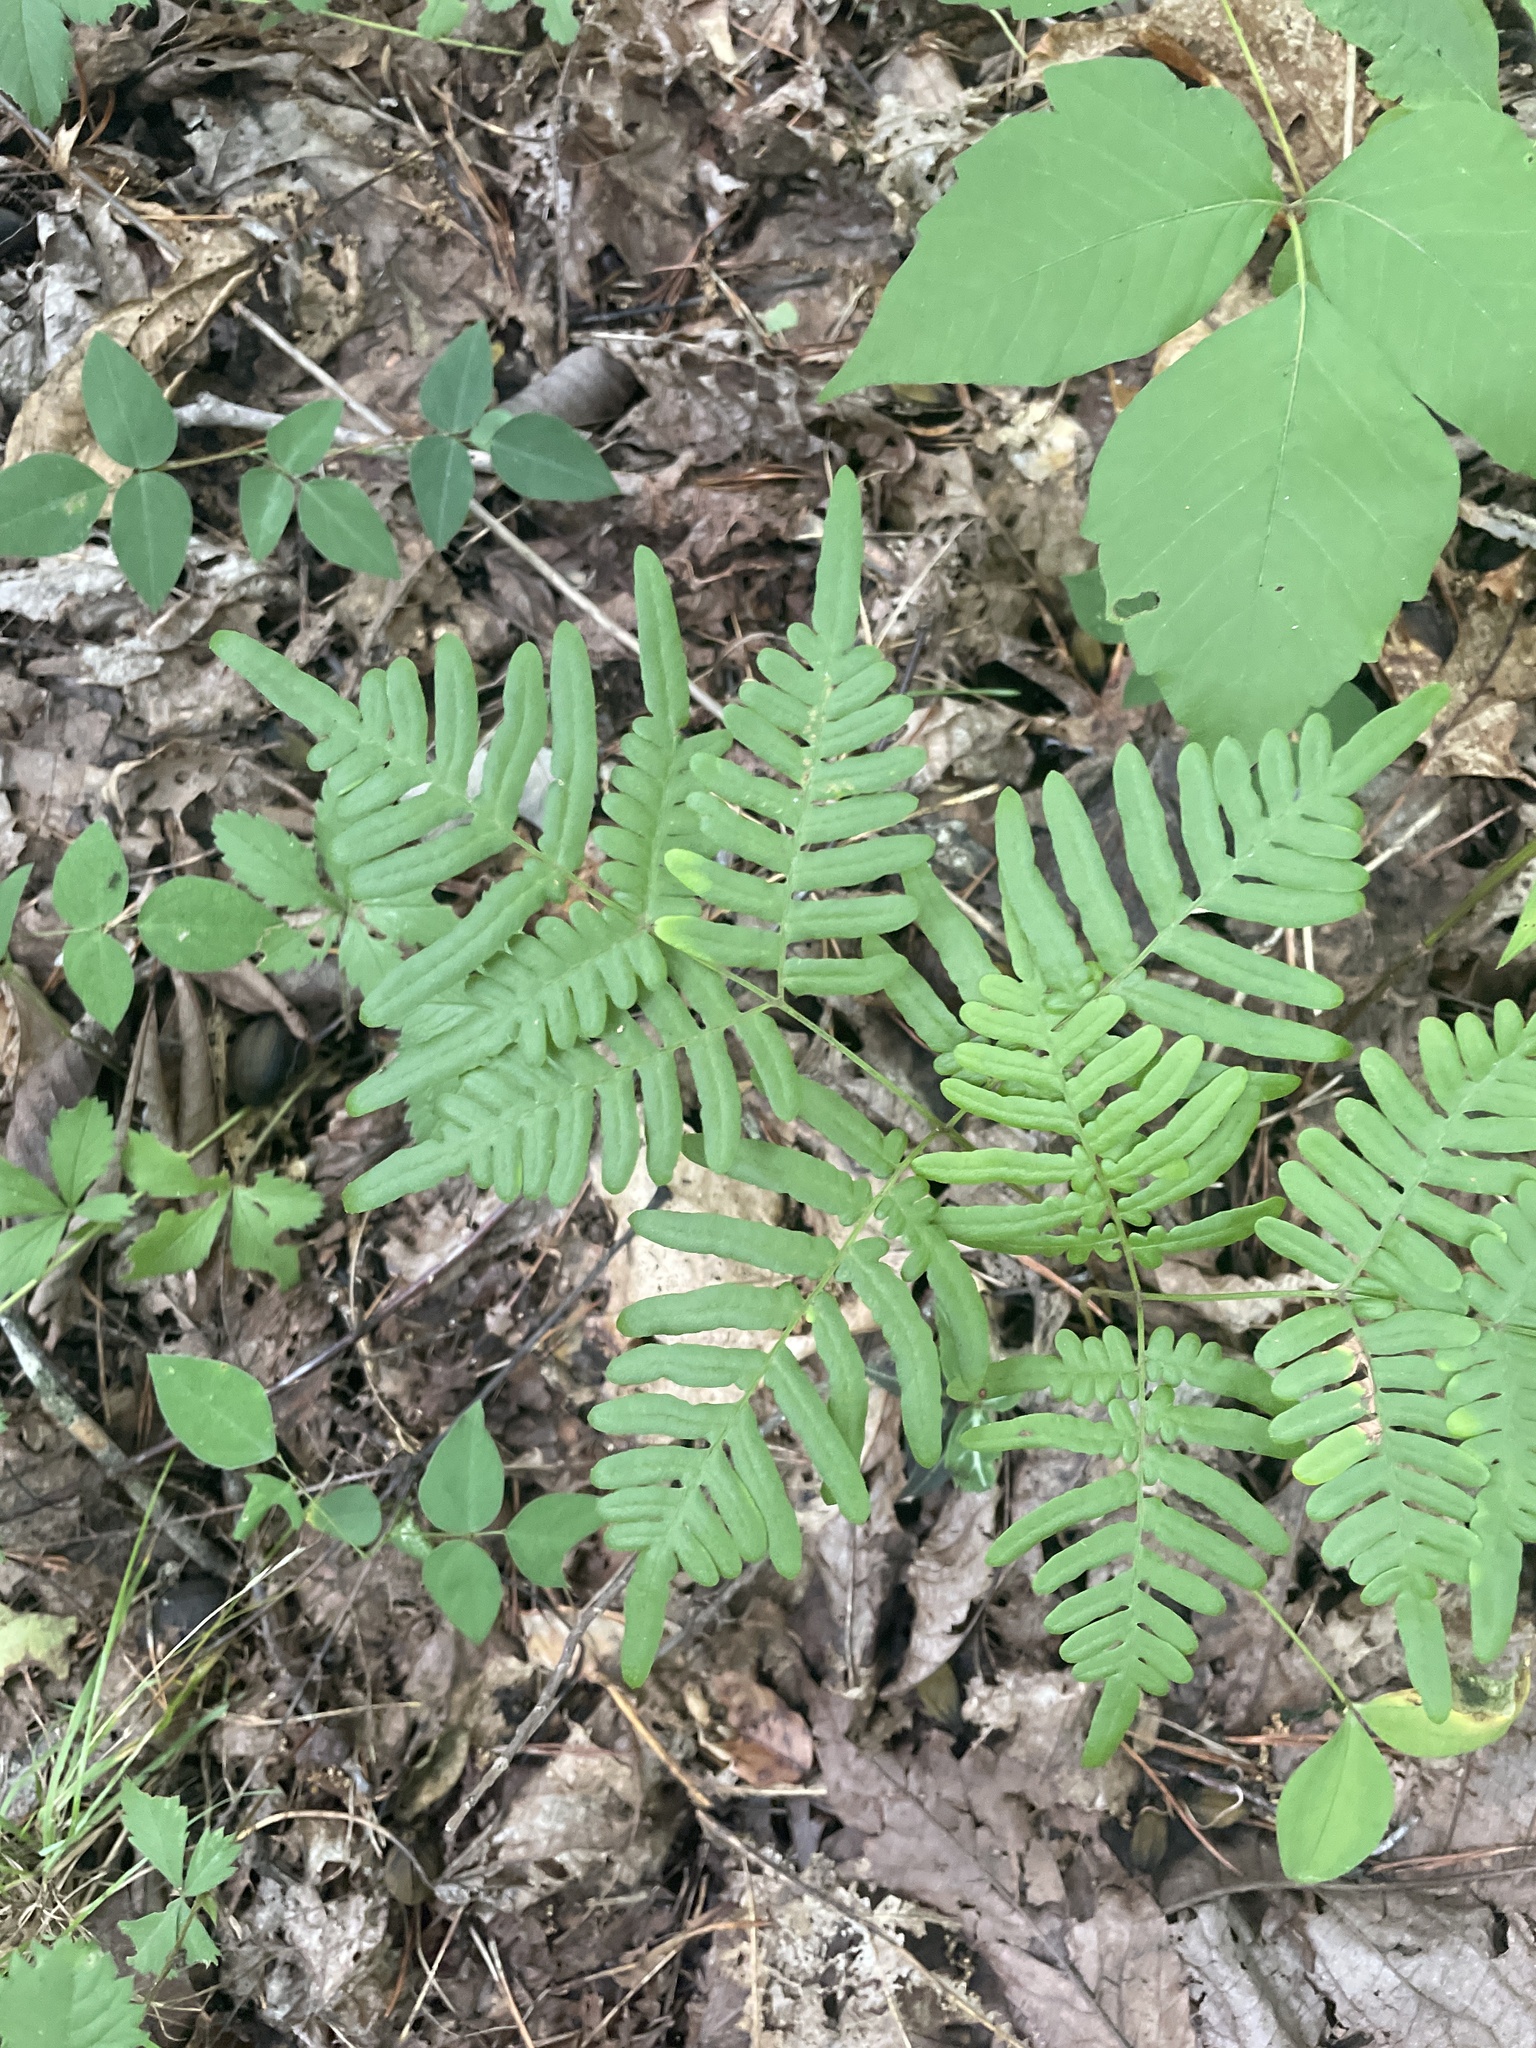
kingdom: Plantae
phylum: Tracheophyta
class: Polypodiopsida
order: Polypodiales
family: Dennstaedtiaceae
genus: Pteridium
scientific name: Pteridium aquilinum
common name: Bracken
